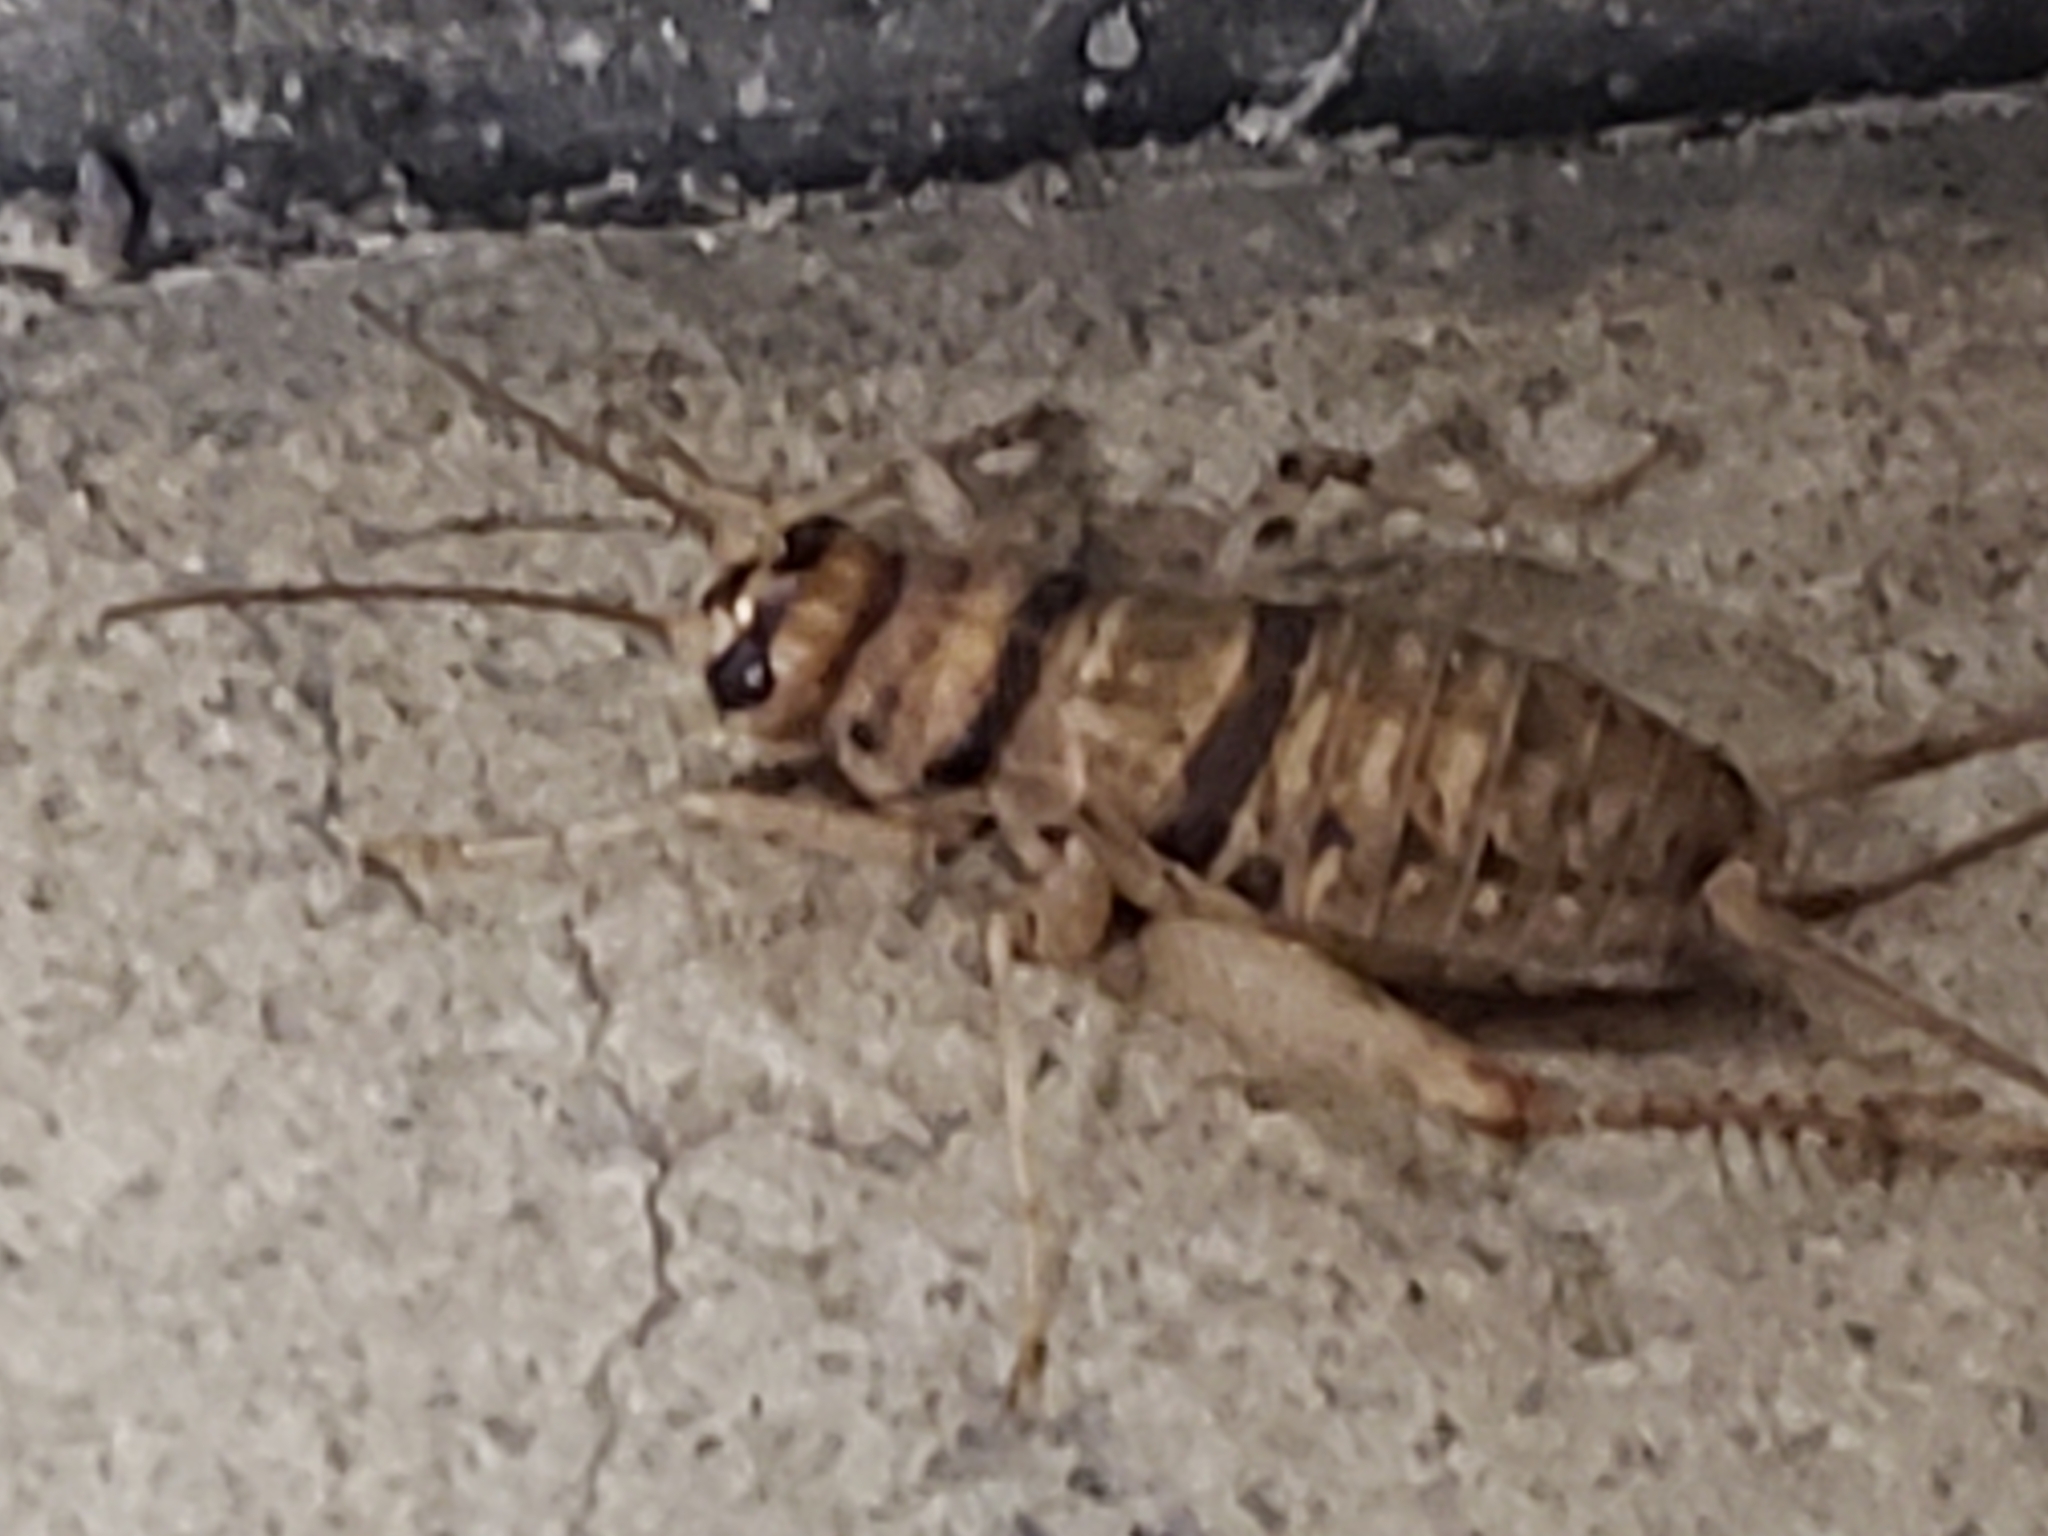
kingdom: Animalia
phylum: Arthropoda
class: Insecta
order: Orthoptera
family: Gryllidae
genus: Gryllodes
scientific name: Gryllodes sigillatus
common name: Tropical house cricket
